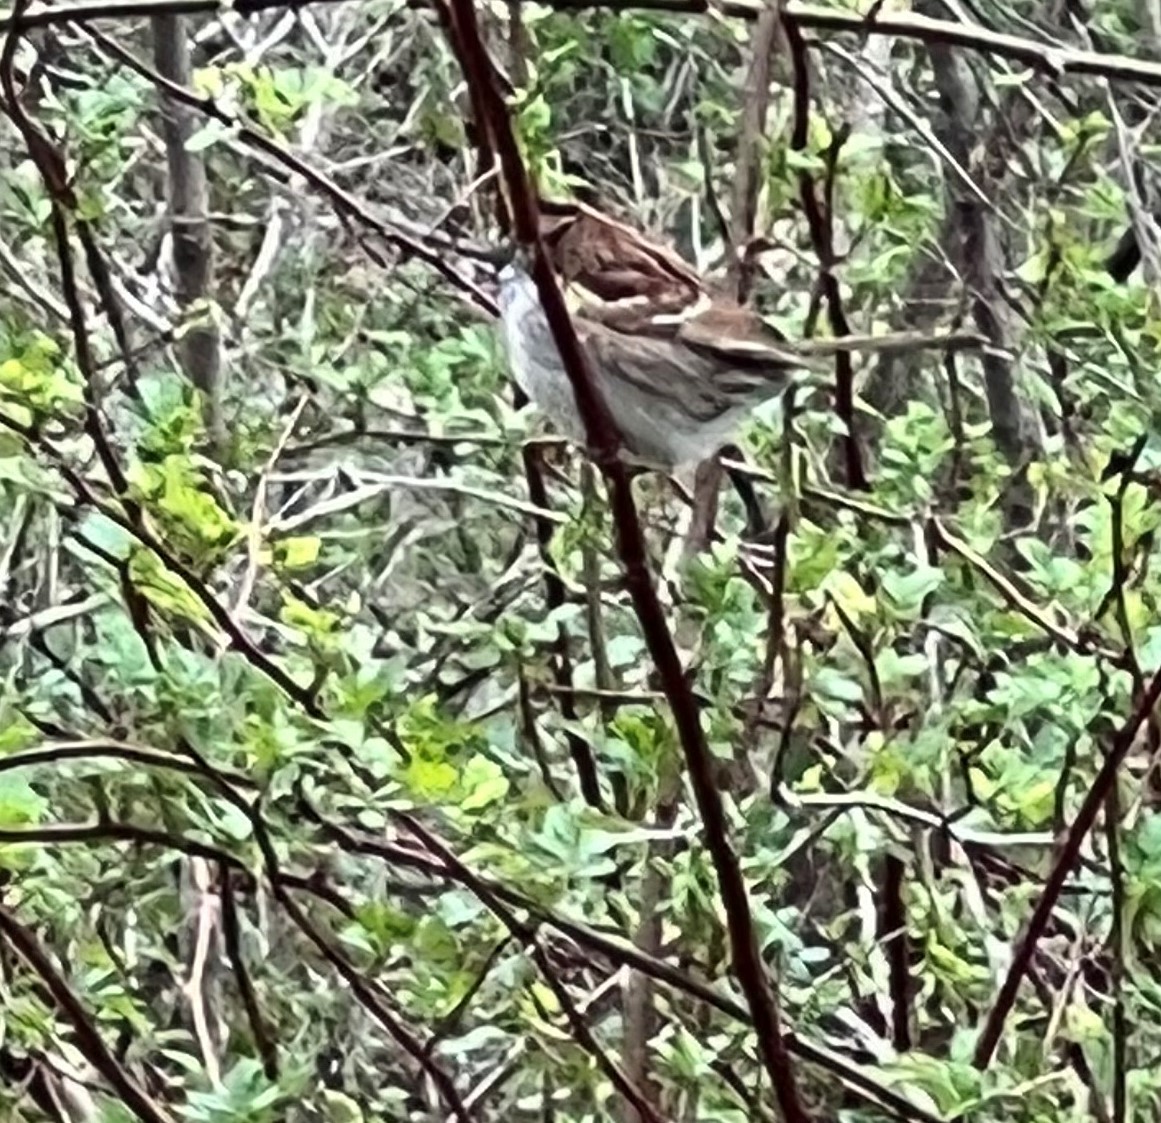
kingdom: Animalia
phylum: Chordata
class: Aves
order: Passeriformes
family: Passerellidae
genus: Zonotrichia
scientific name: Zonotrichia albicollis
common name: White-throated sparrow
